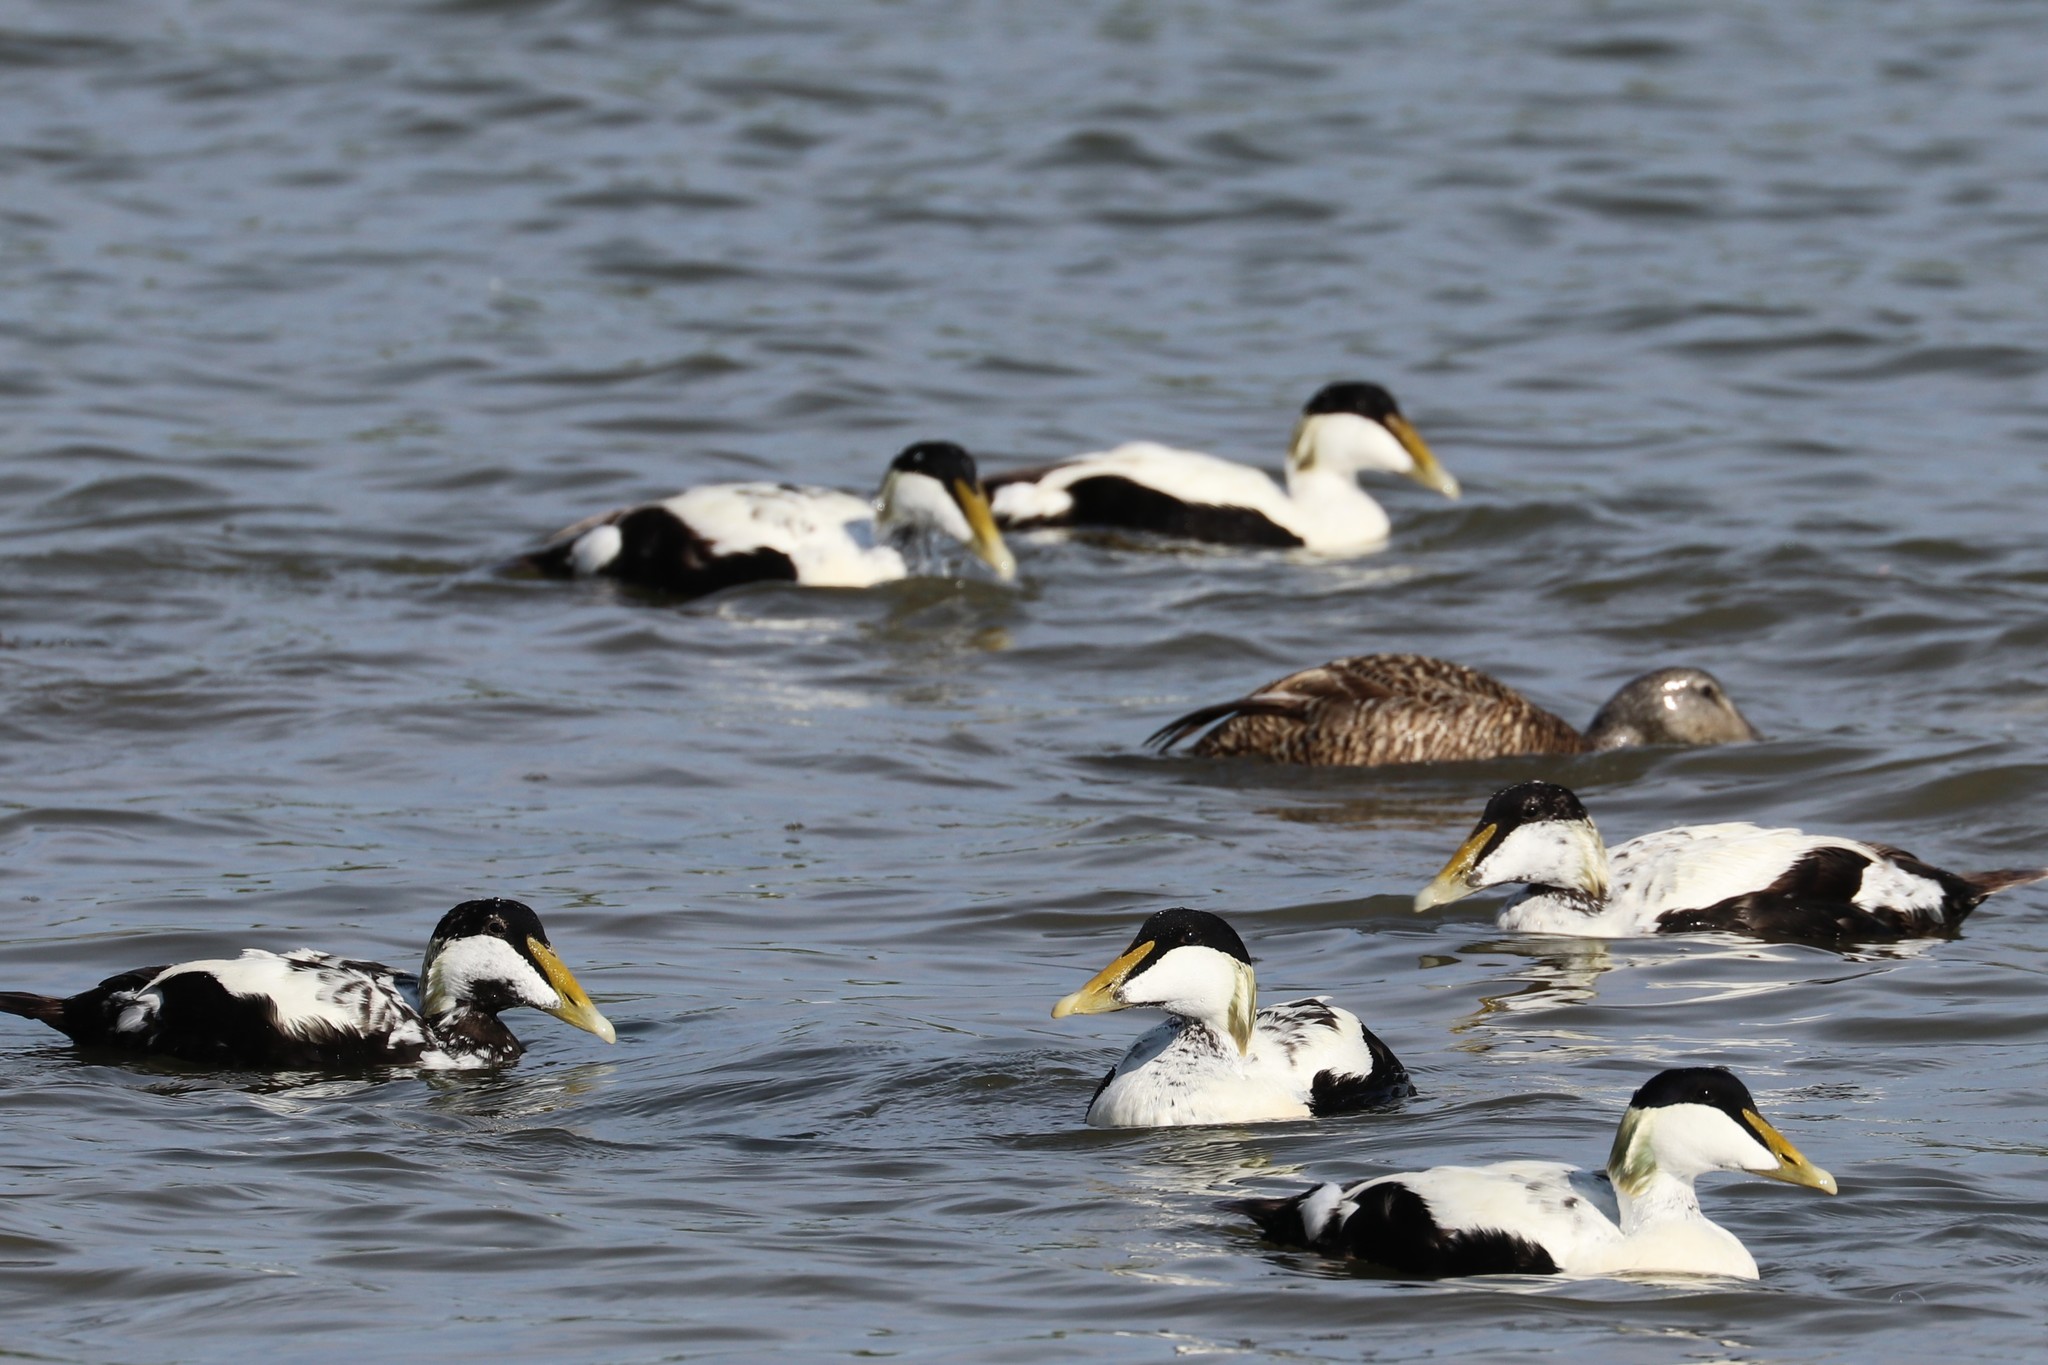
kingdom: Animalia
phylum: Chordata
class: Aves
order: Anseriformes
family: Anatidae
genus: Somateria
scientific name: Somateria mollissima
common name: Common eider
